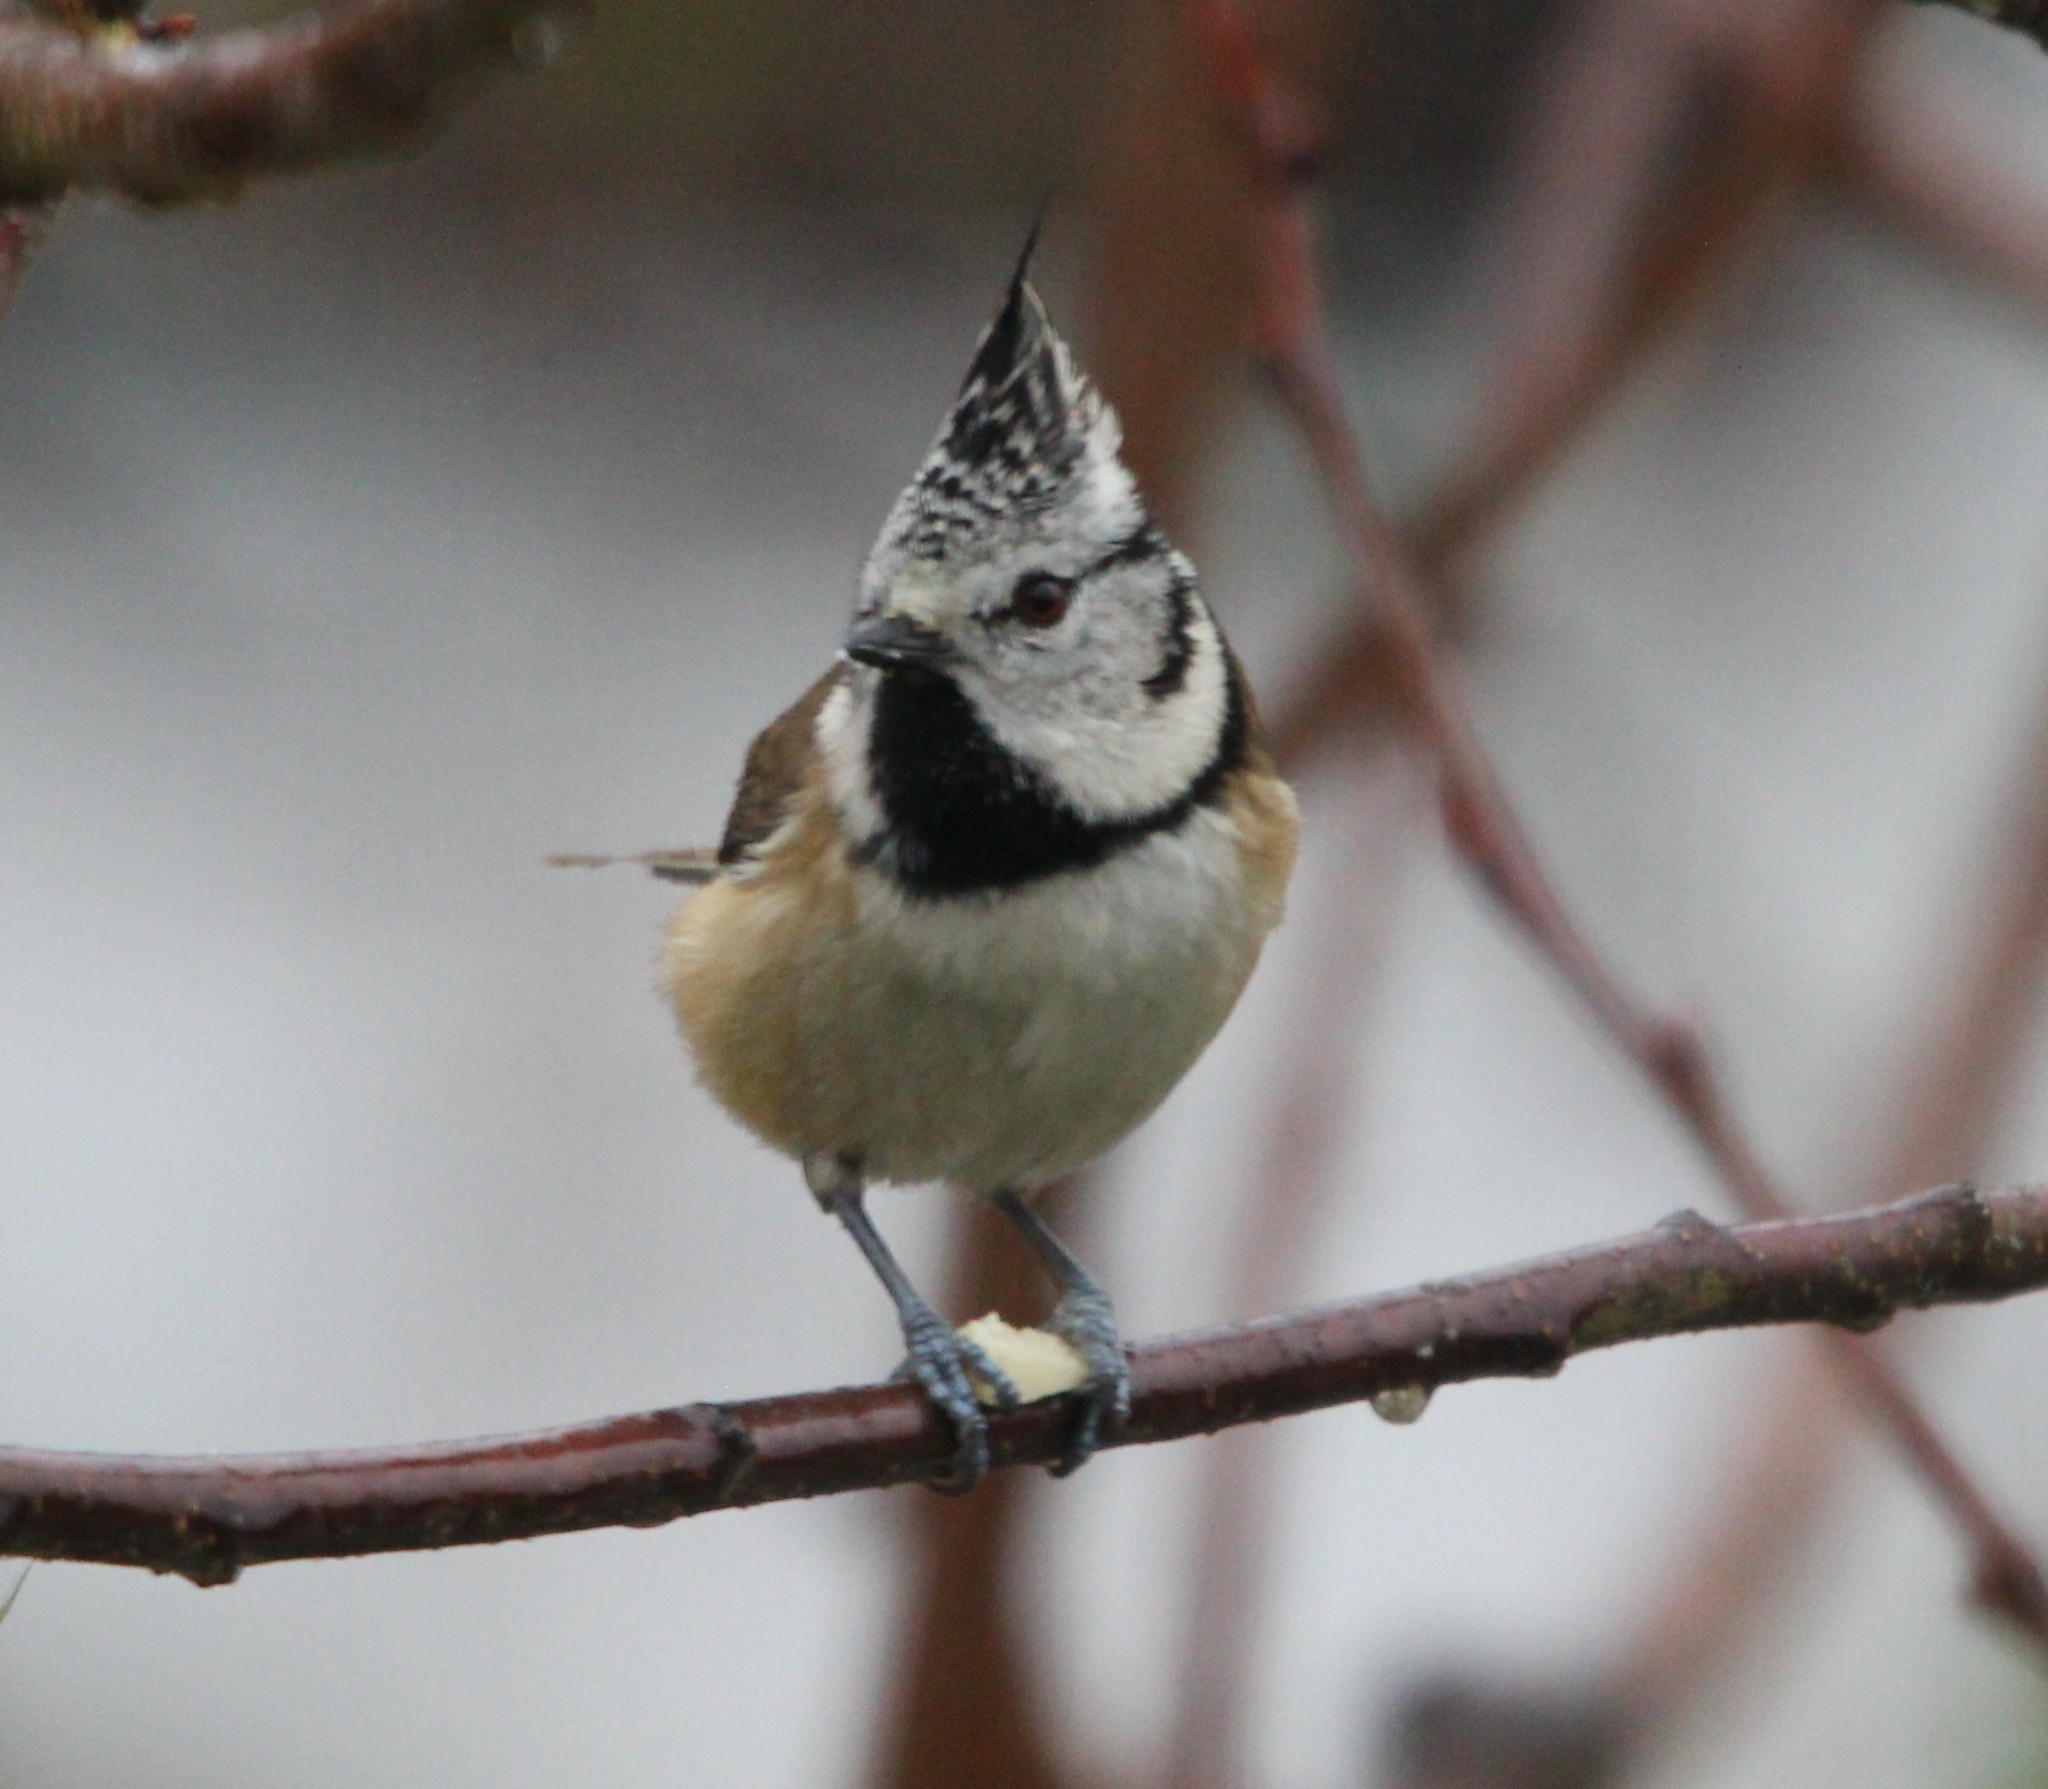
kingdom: Animalia
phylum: Chordata
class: Aves
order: Passeriformes
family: Paridae
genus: Lophophanes
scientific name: Lophophanes cristatus
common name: European crested tit
